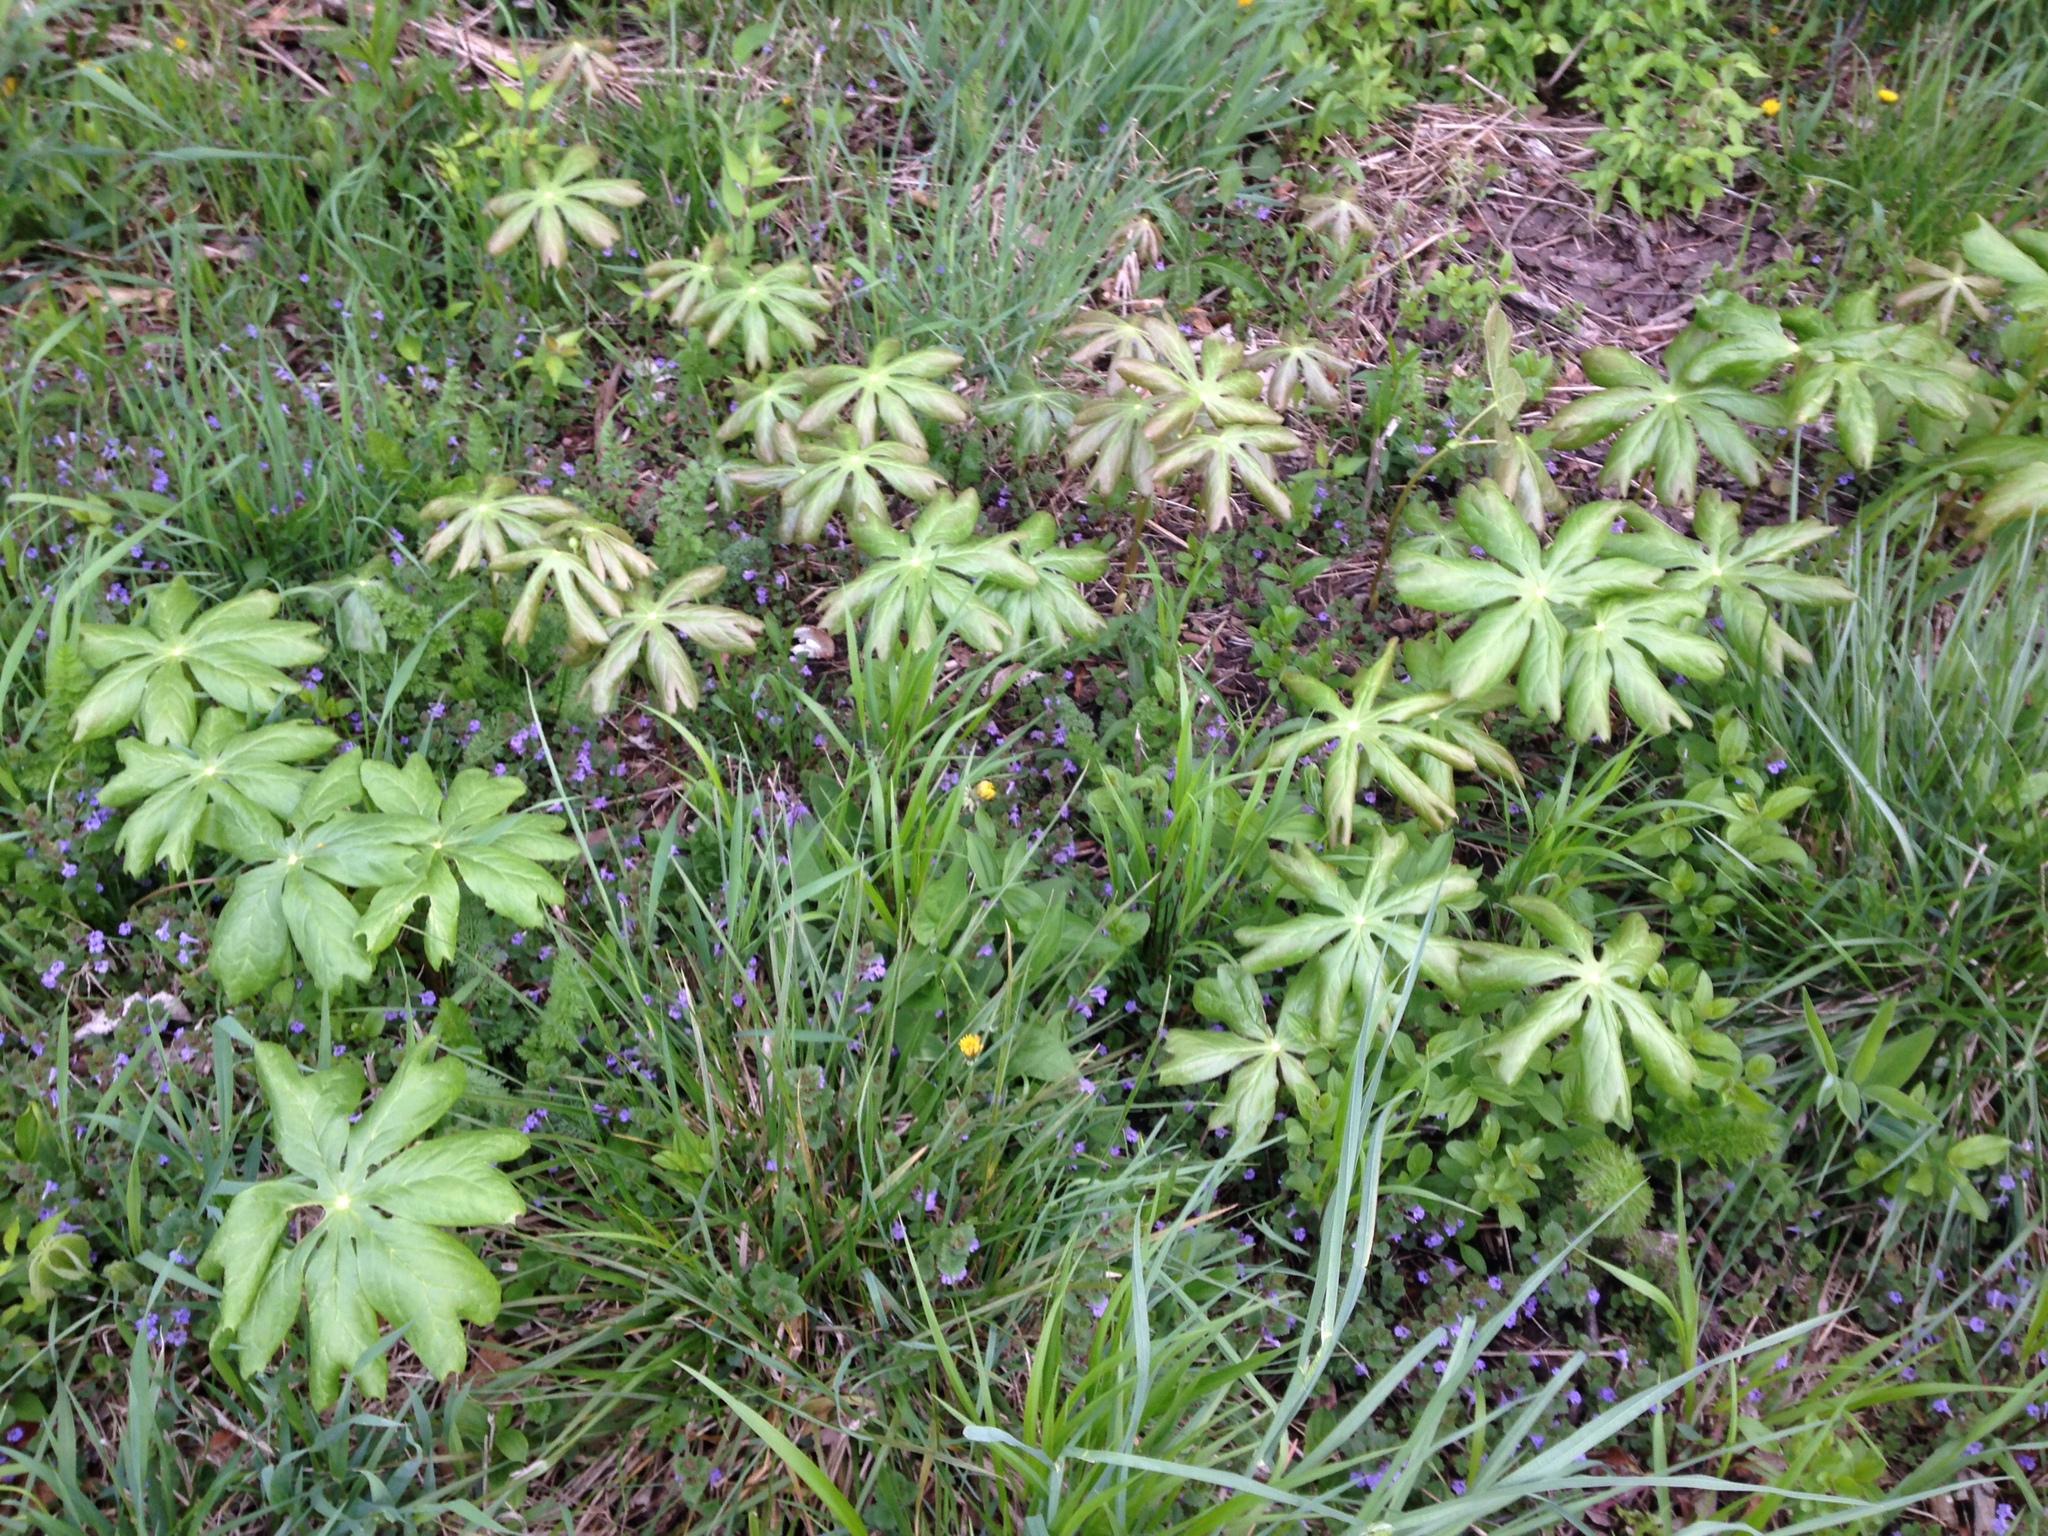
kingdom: Plantae
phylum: Tracheophyta
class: Magnoliopsida
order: Ranunculales
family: Berberidaceae
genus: Podophyllum
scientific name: Podophyllum peltatum
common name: Wild mandrake
